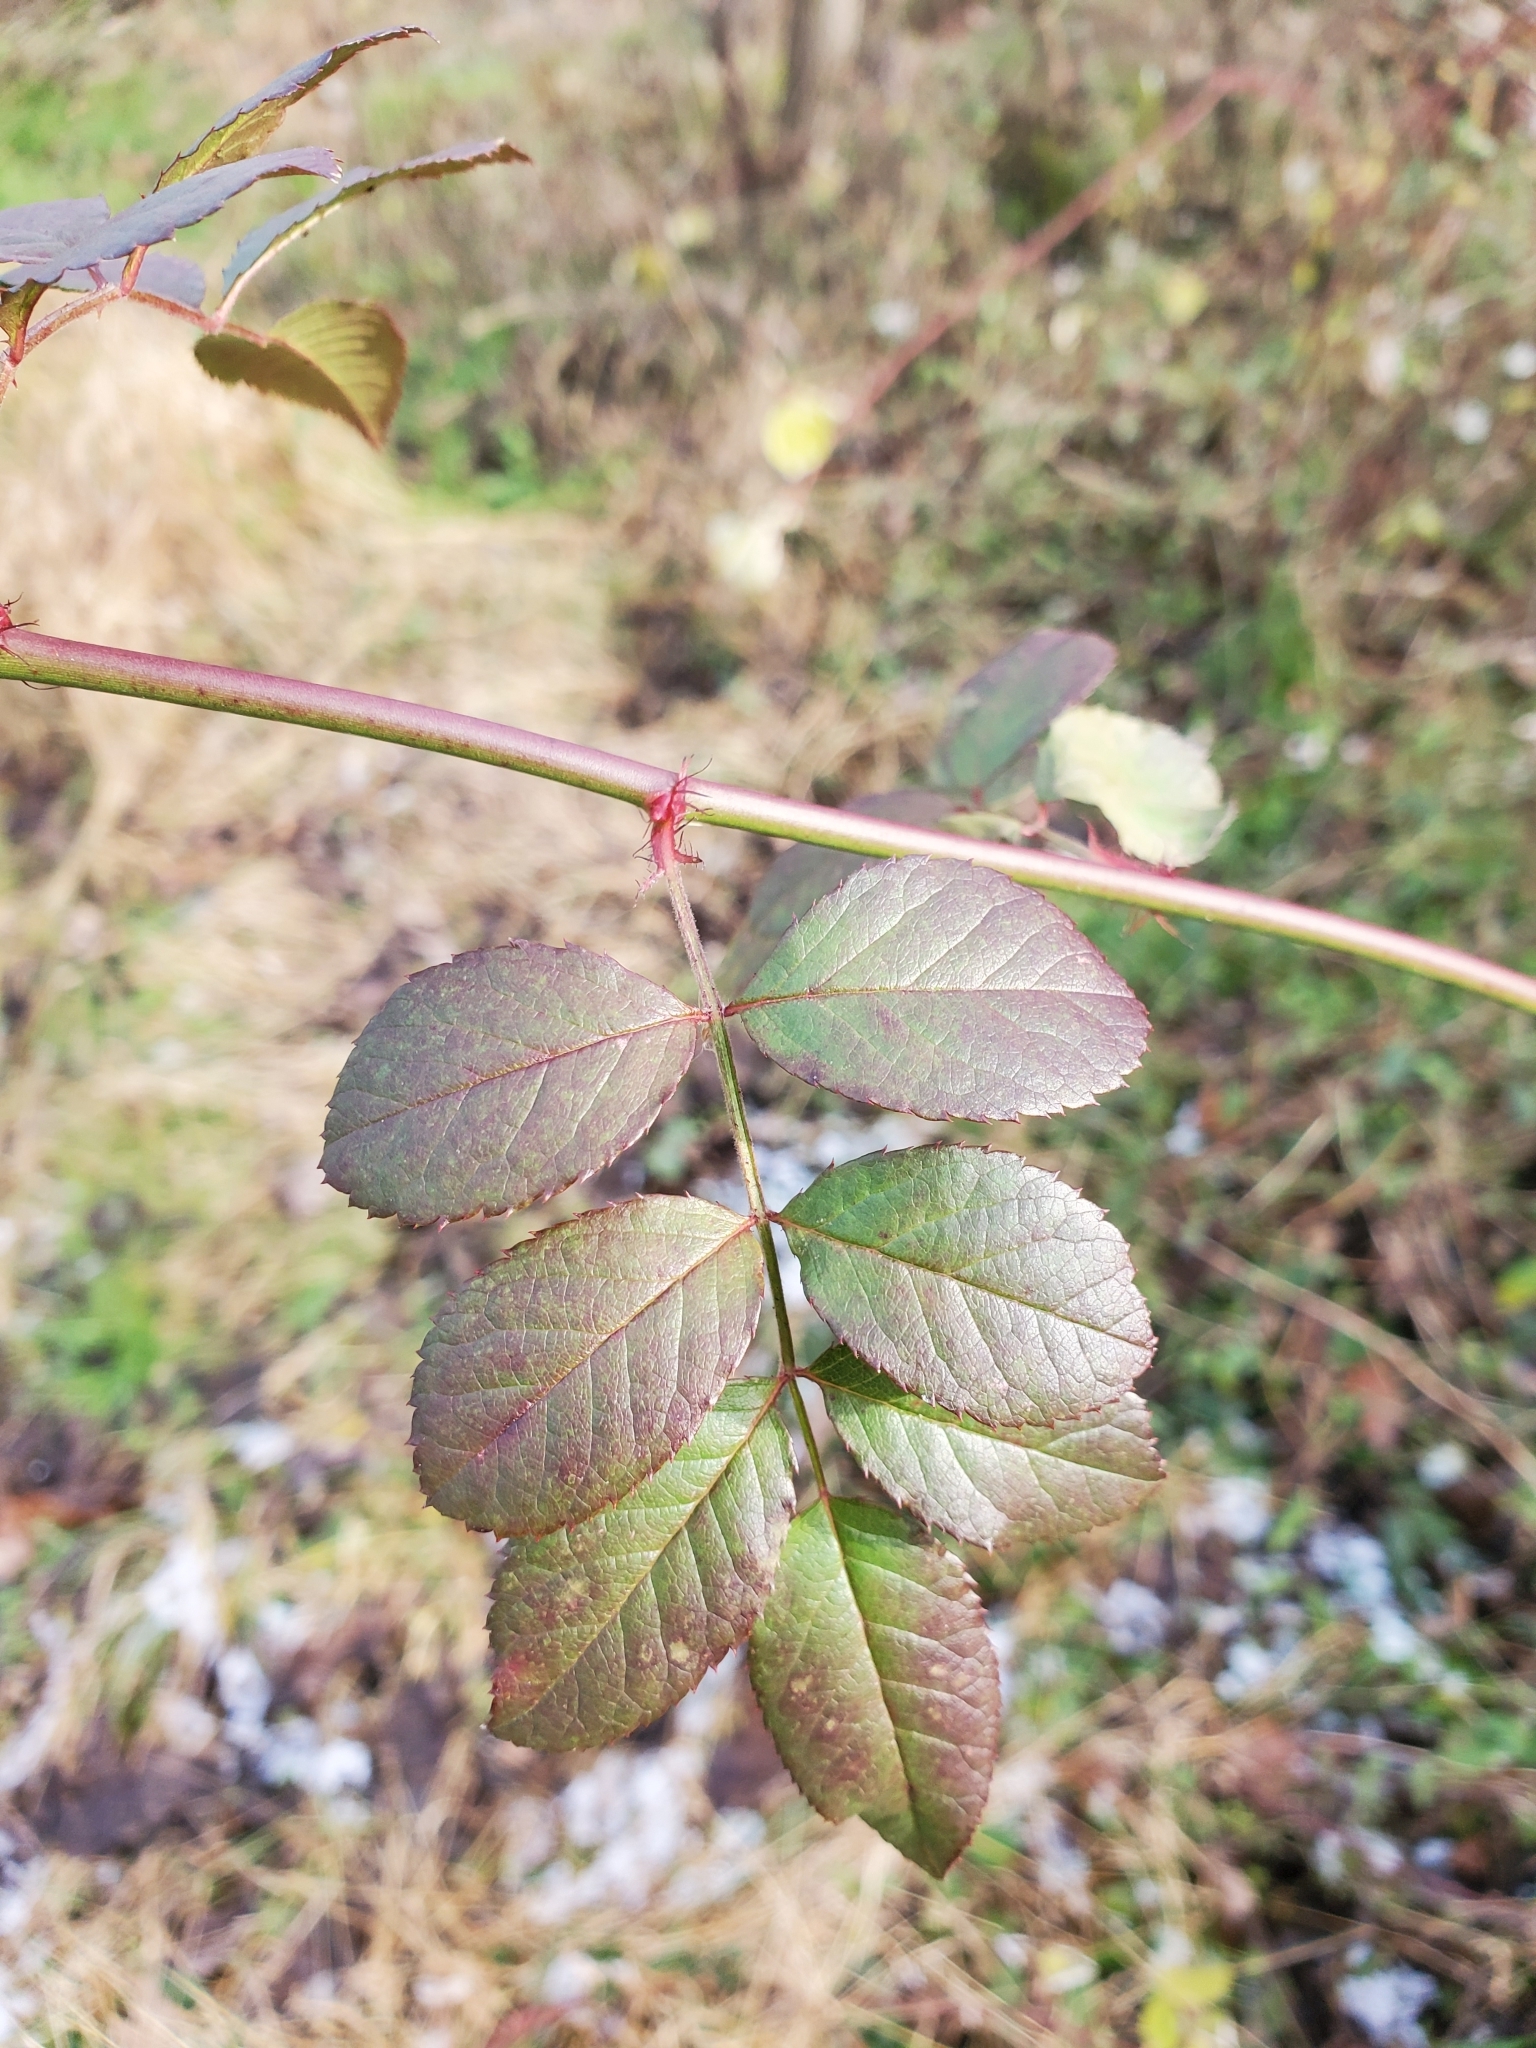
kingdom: Plantae
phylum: Tracheophyta
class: Magnoliopsida
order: Rosales
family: Rosaceae
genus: Rosa
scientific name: Rosa multiflora
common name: Multiflora rose
